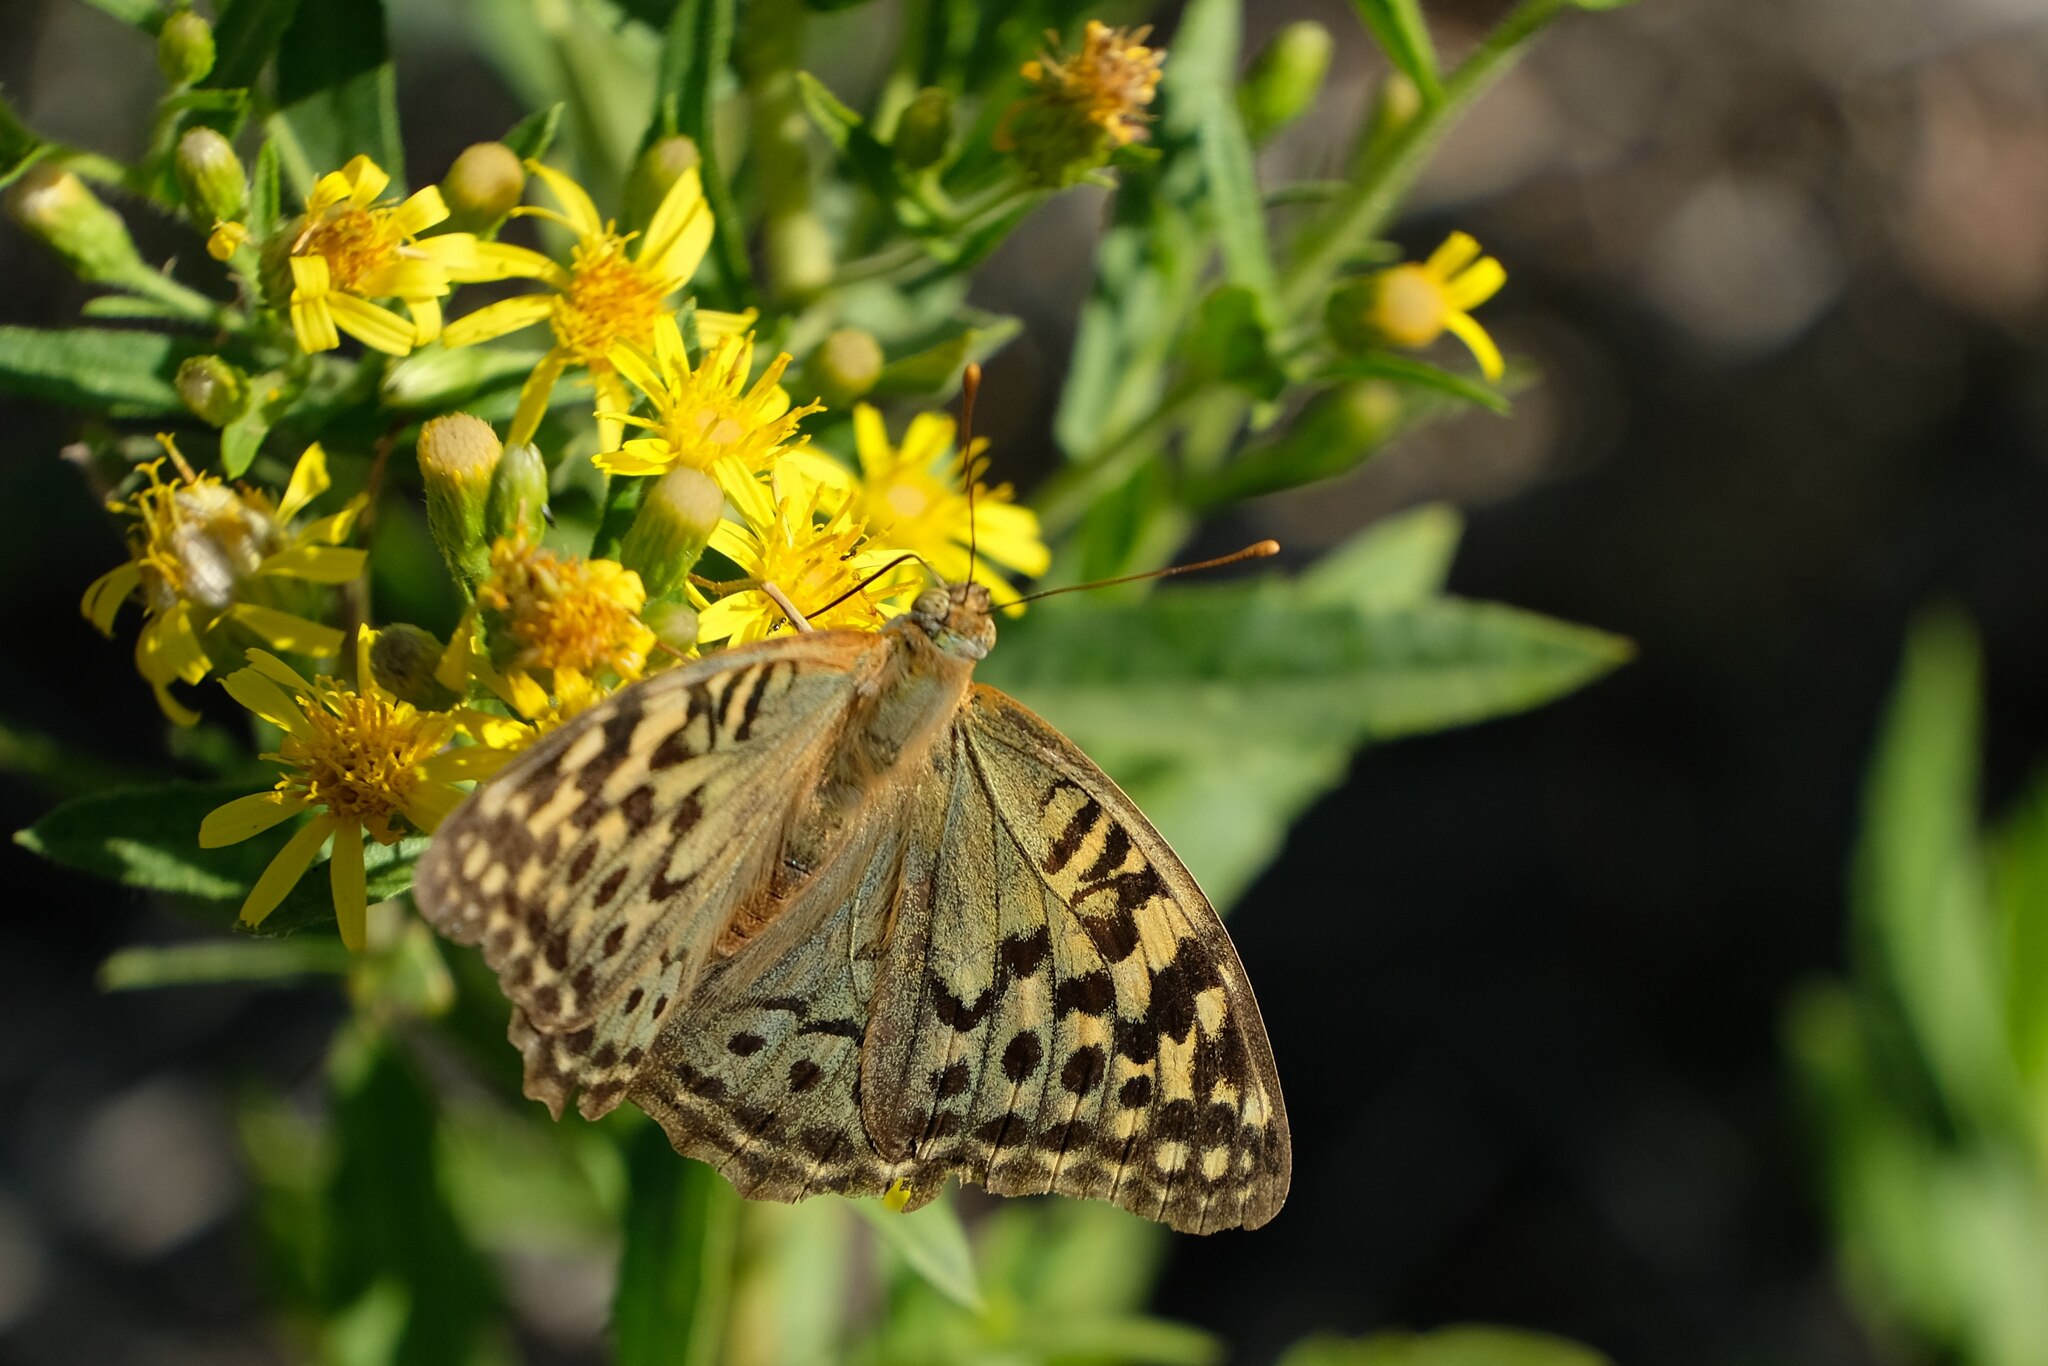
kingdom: Animalia
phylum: Arthropoda
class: Insecta
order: Lepidoptera
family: Nymphalidae
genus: Damora
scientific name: Damora pandora
